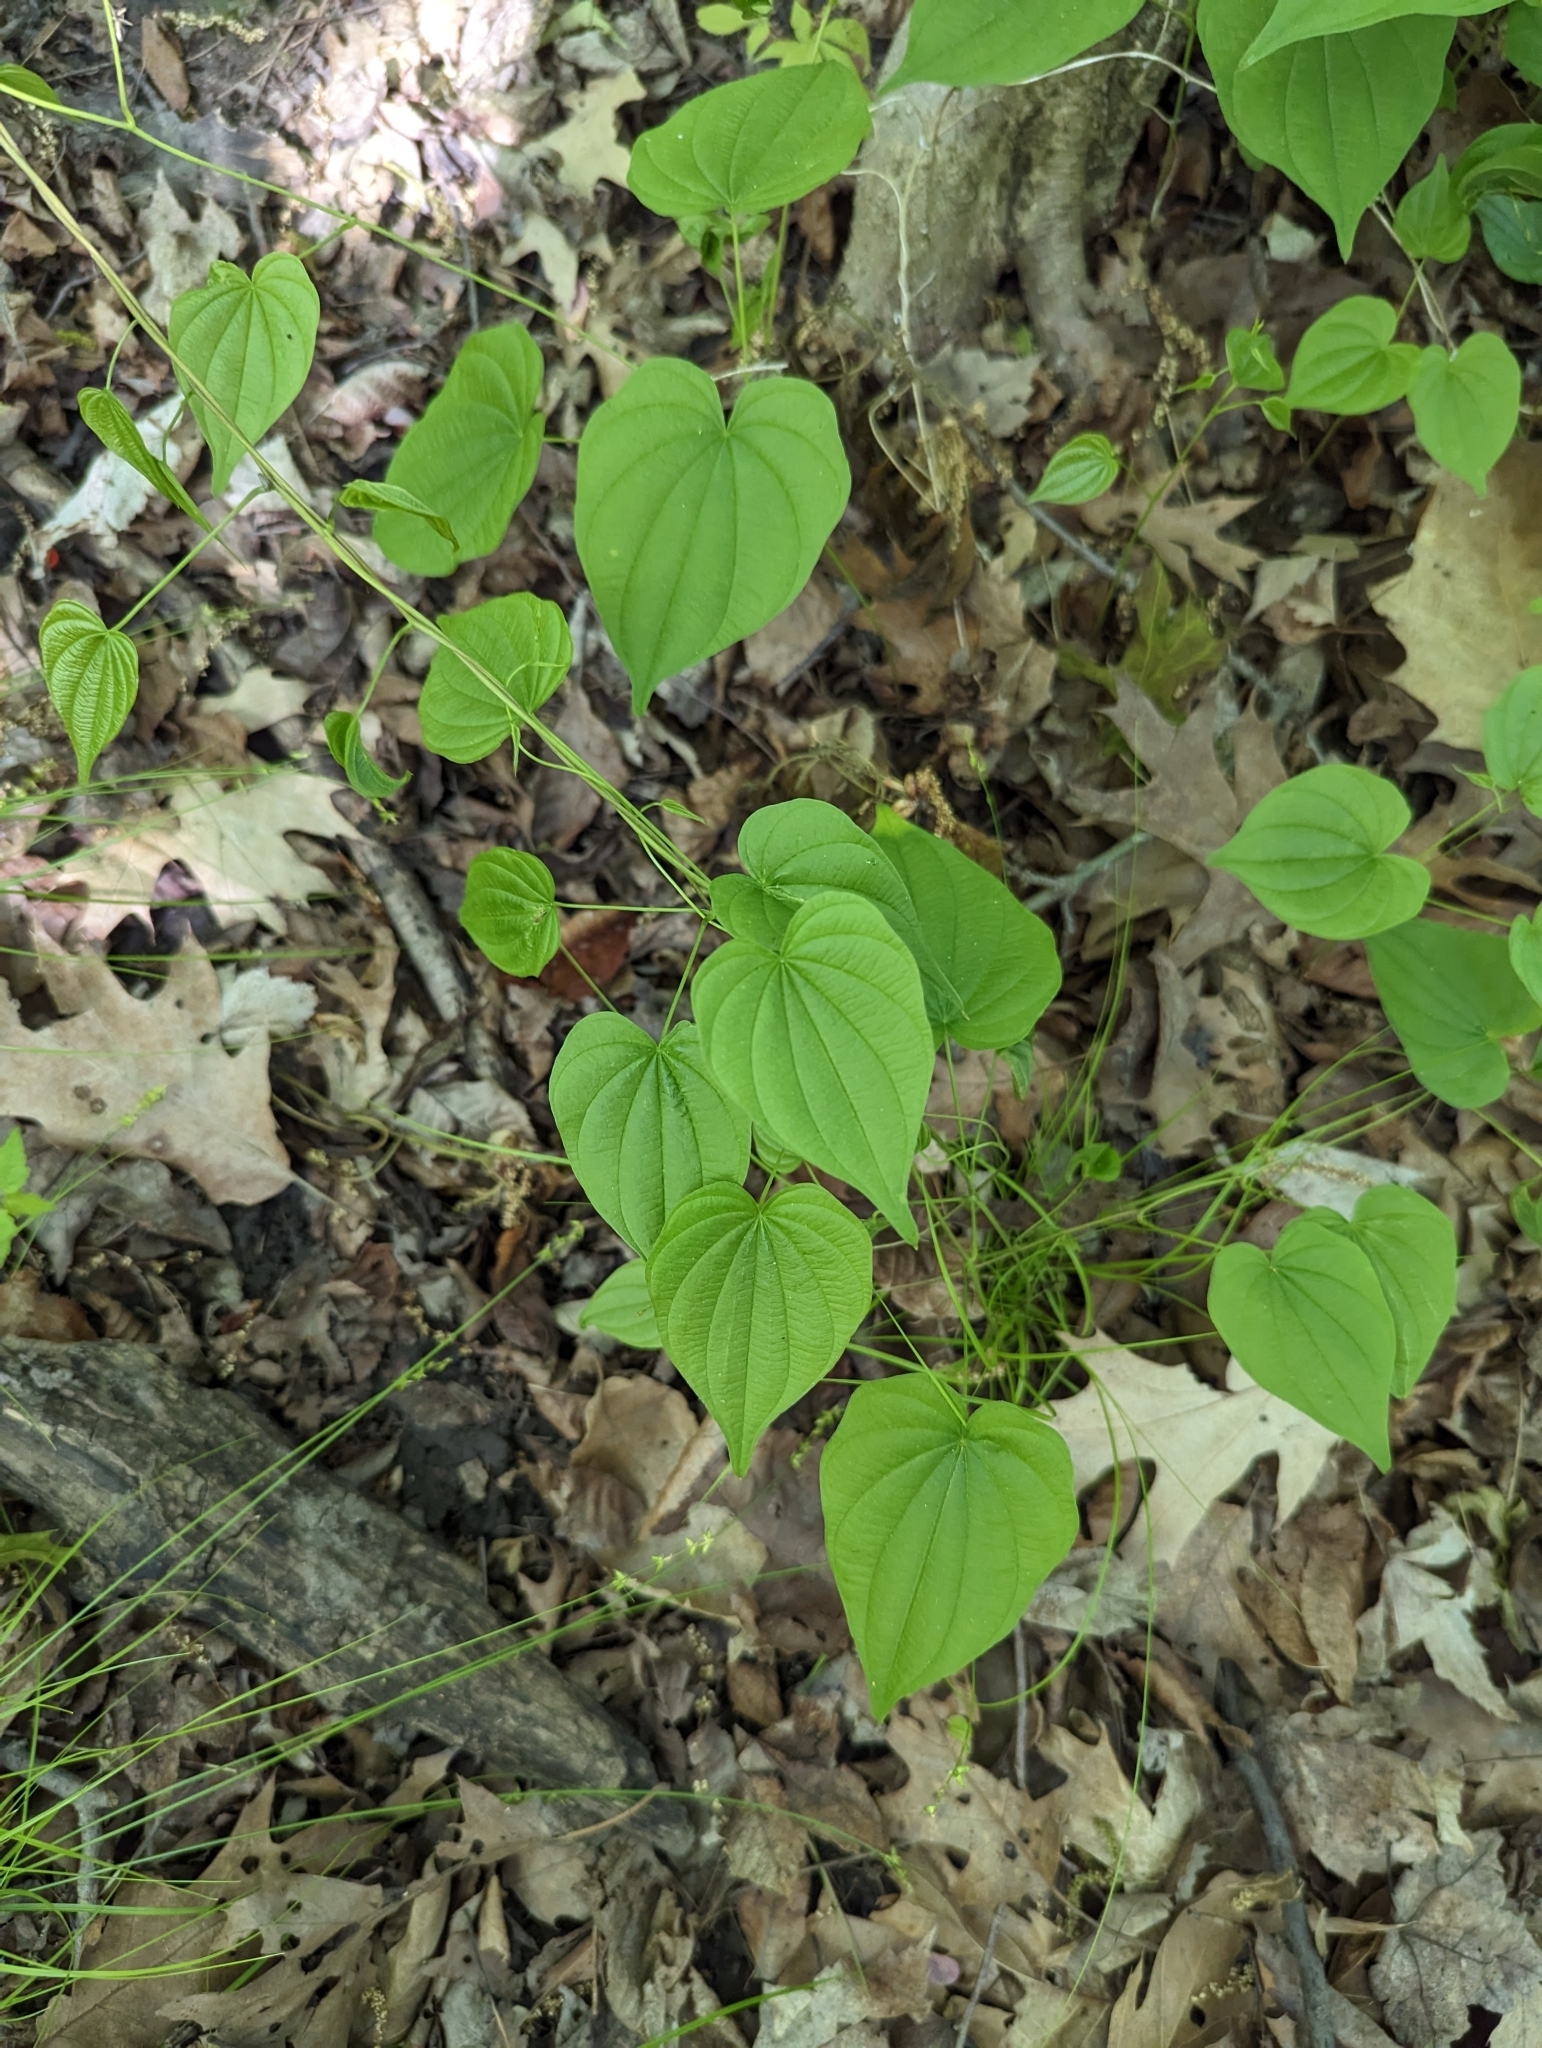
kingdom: Plantae
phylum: Tracheophyta
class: Liliopsida
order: Dioscoreales
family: Dioscoreaceae
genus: Dioscorea
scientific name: Dioscorea villosa
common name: Wild yam
